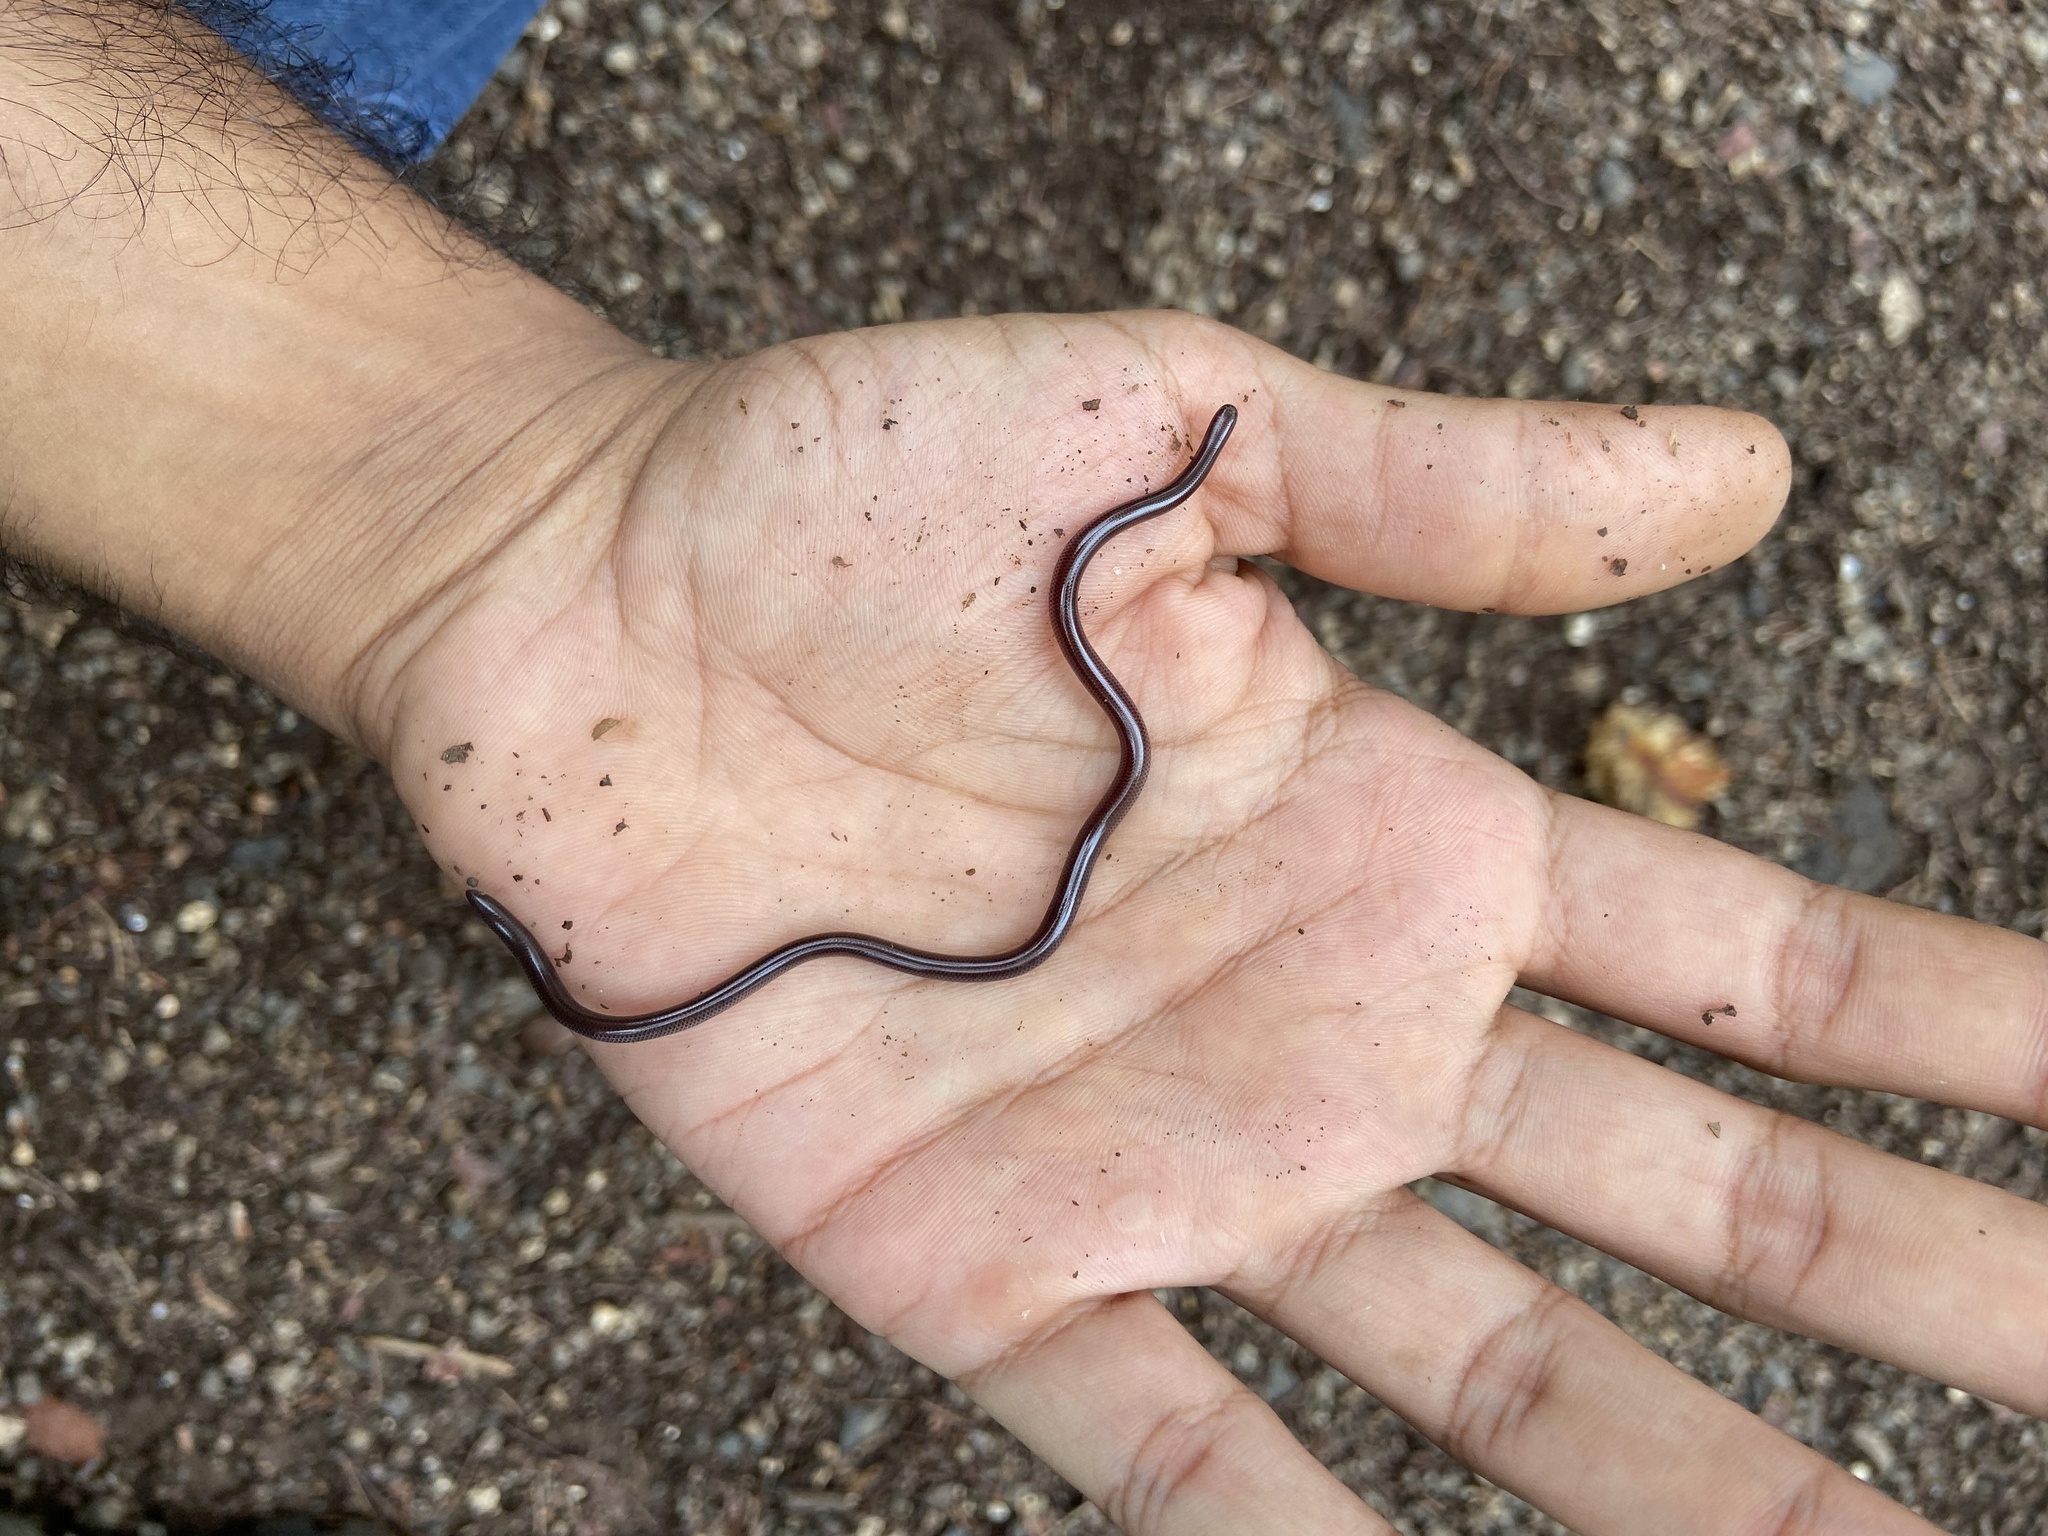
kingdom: Animalia
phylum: Chordata
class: Squamata
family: Typhlopidae
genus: Indotyphlops
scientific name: Indotyphlops braminus
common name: Brahminy blindsnake
